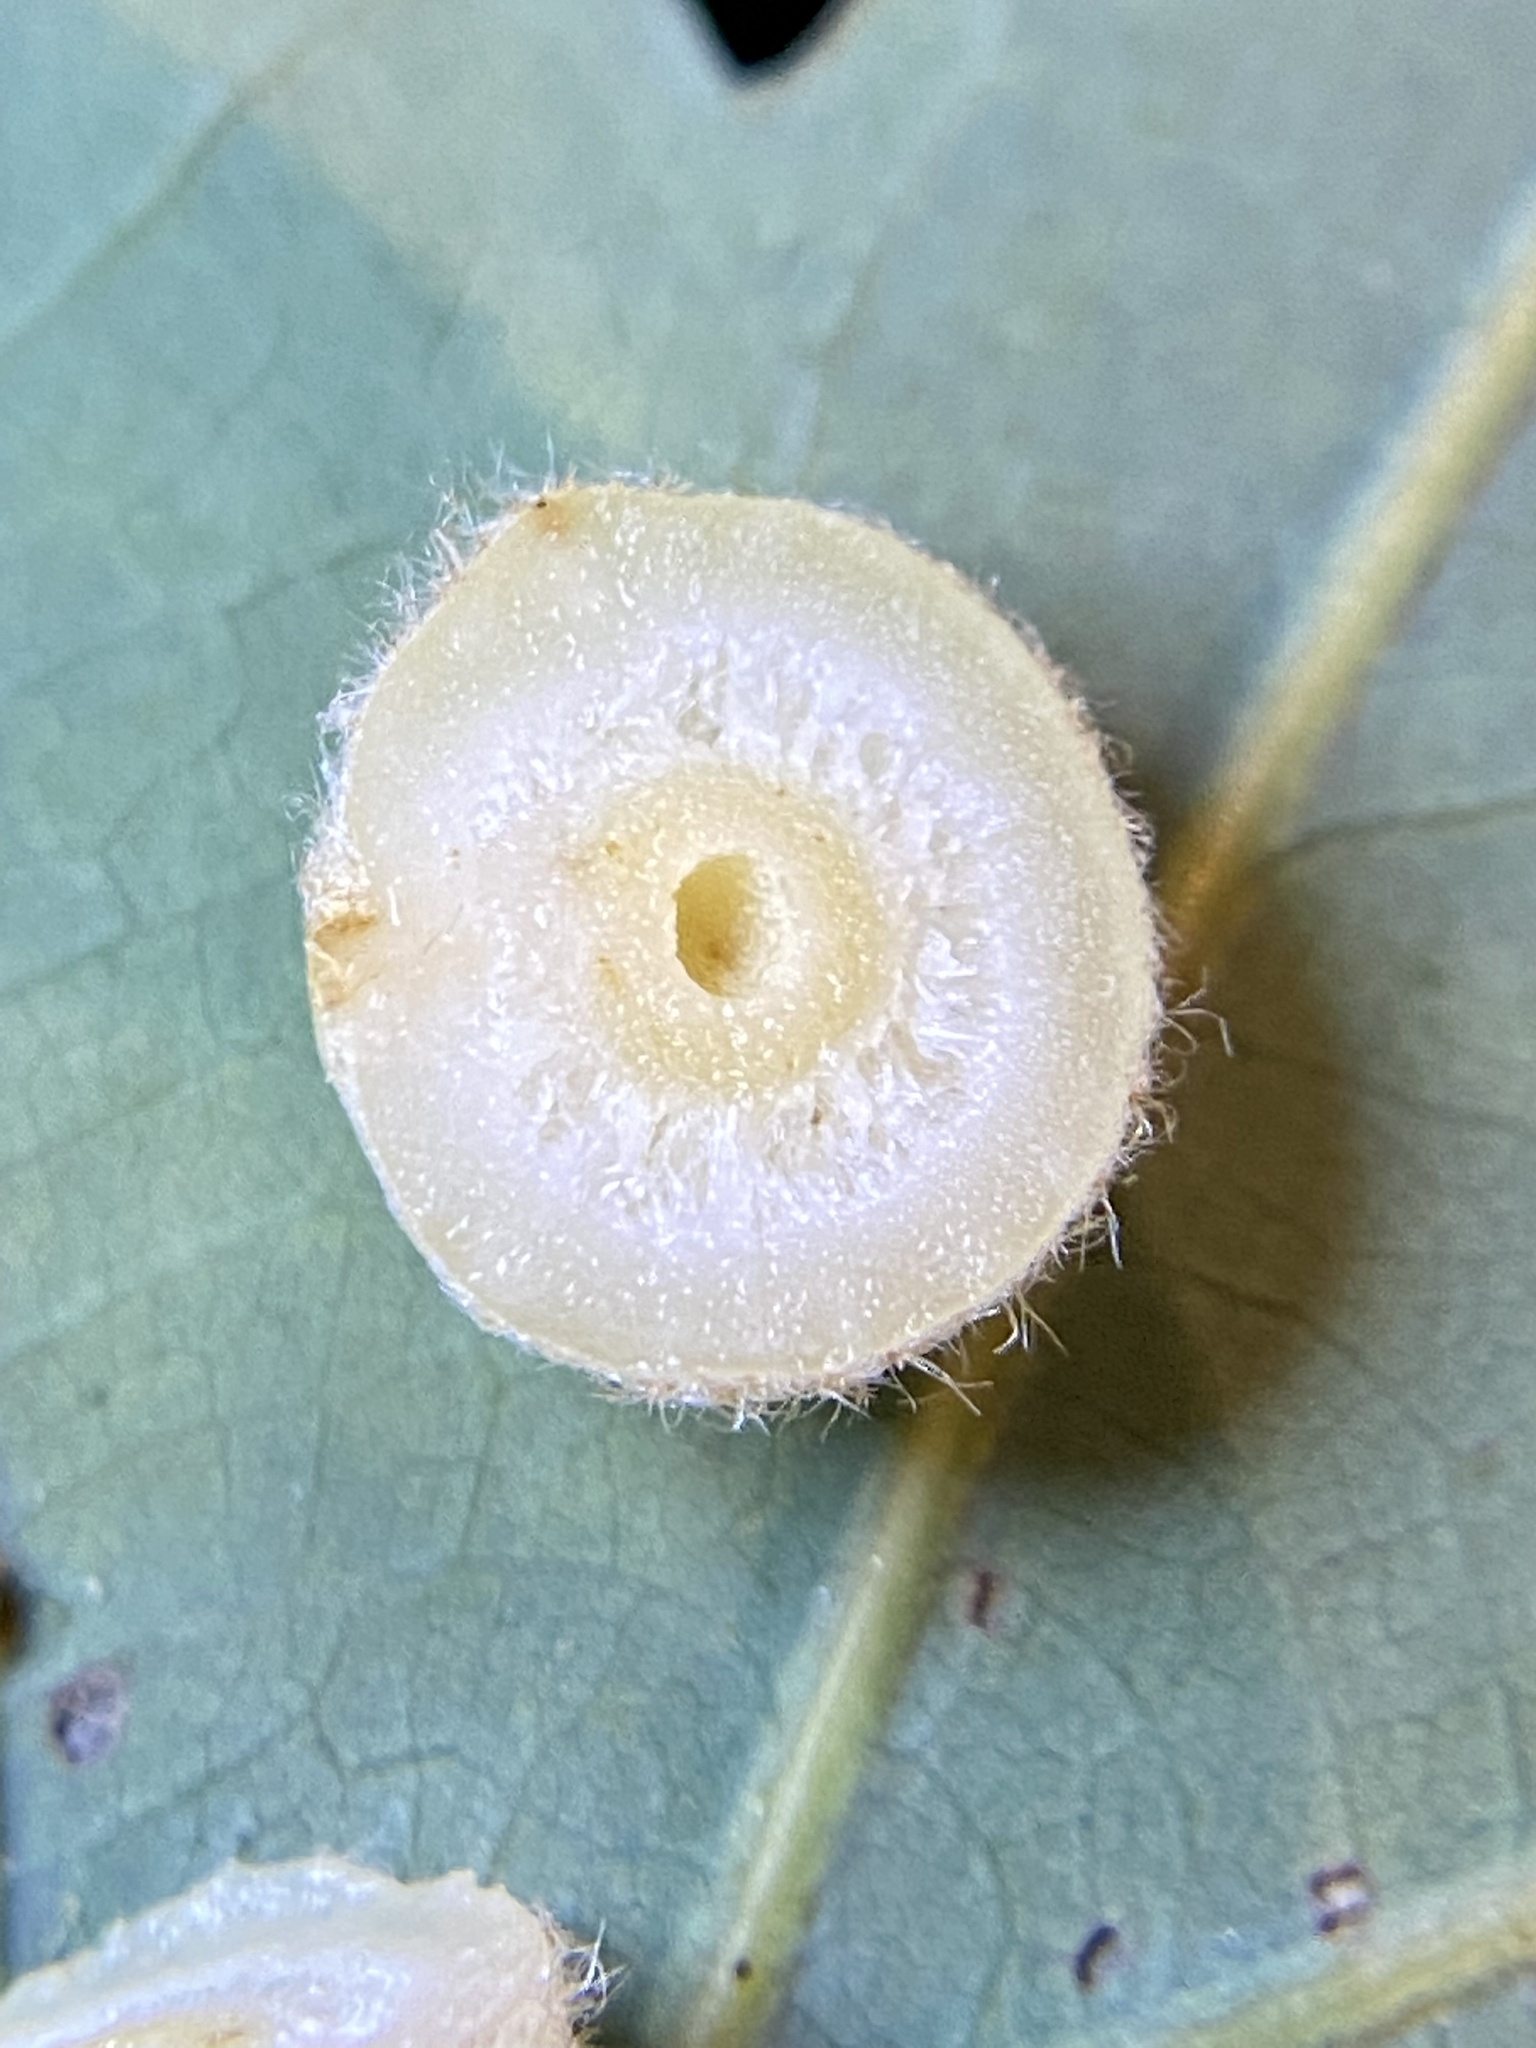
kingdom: Animalia
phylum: Arthropoda
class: Insecta
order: Hymenoptera
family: Cynipidae
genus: Philonix
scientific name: Philonix fulvicollis
